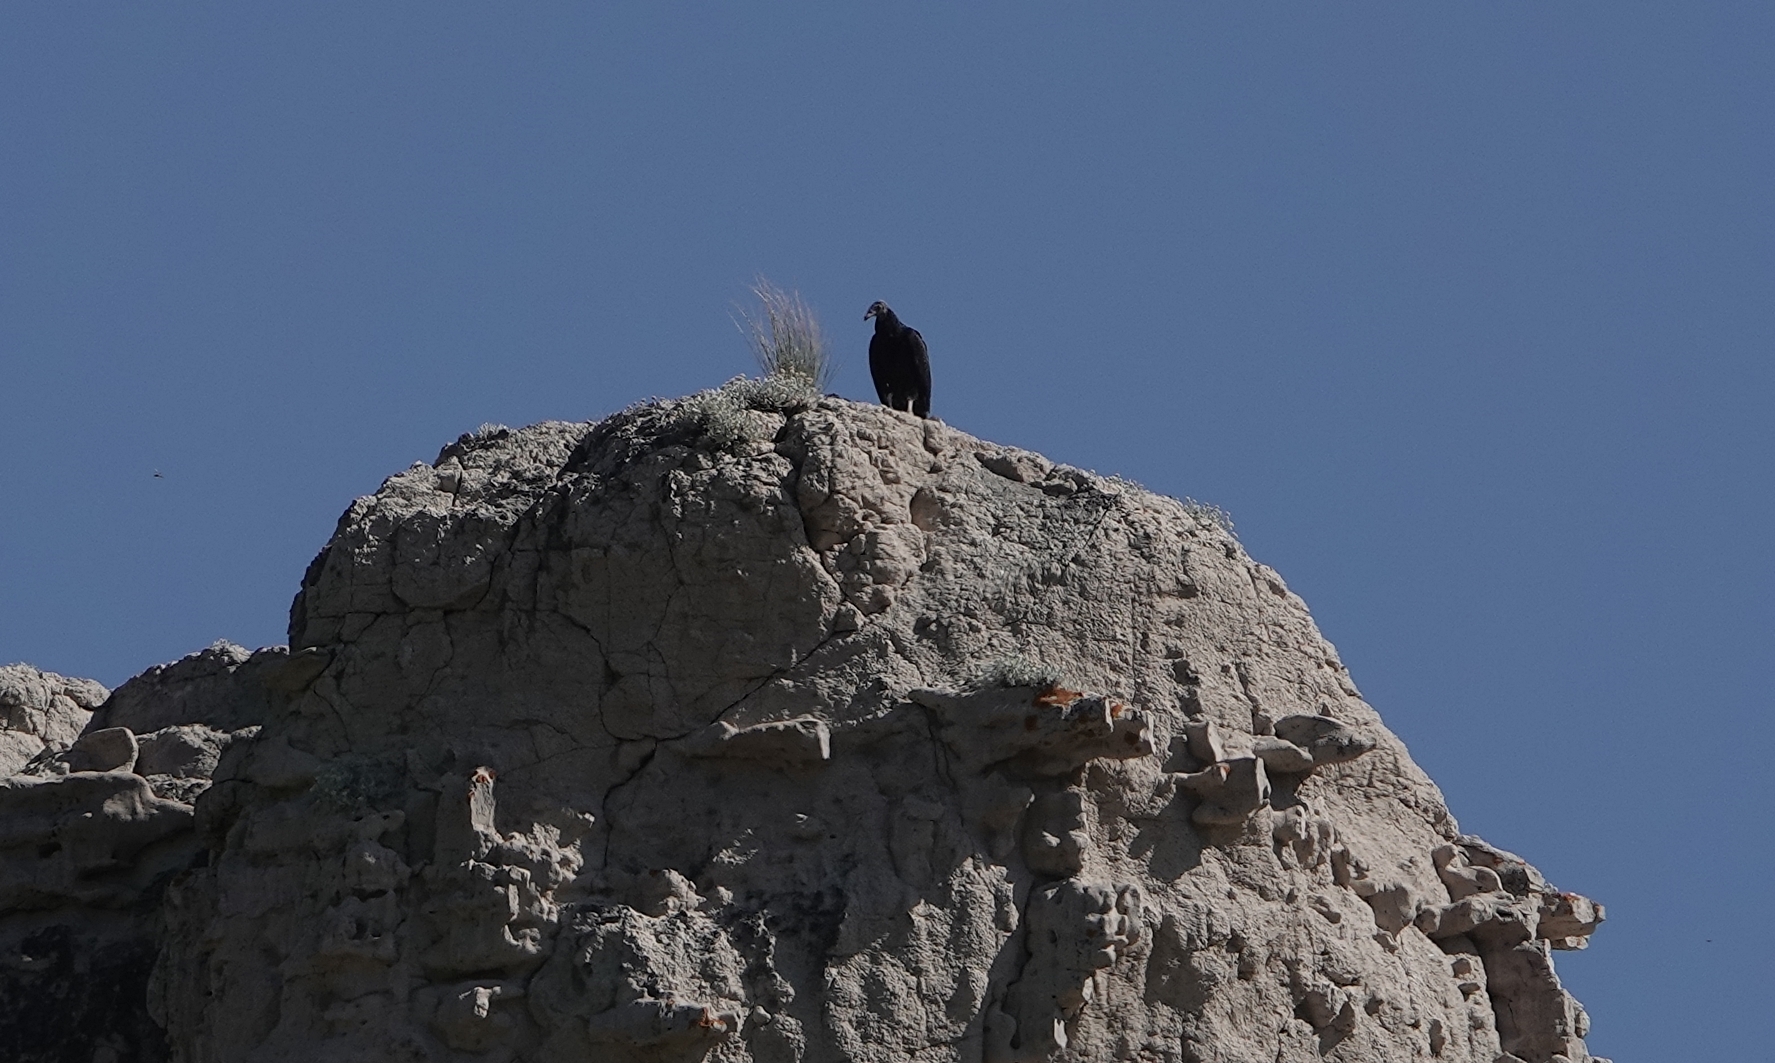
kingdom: Animalia
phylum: Chordata
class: Aves
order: Accipitriformes
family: Cathartidae
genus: Cathartes
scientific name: Cathartes aura
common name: Turkey vulture
